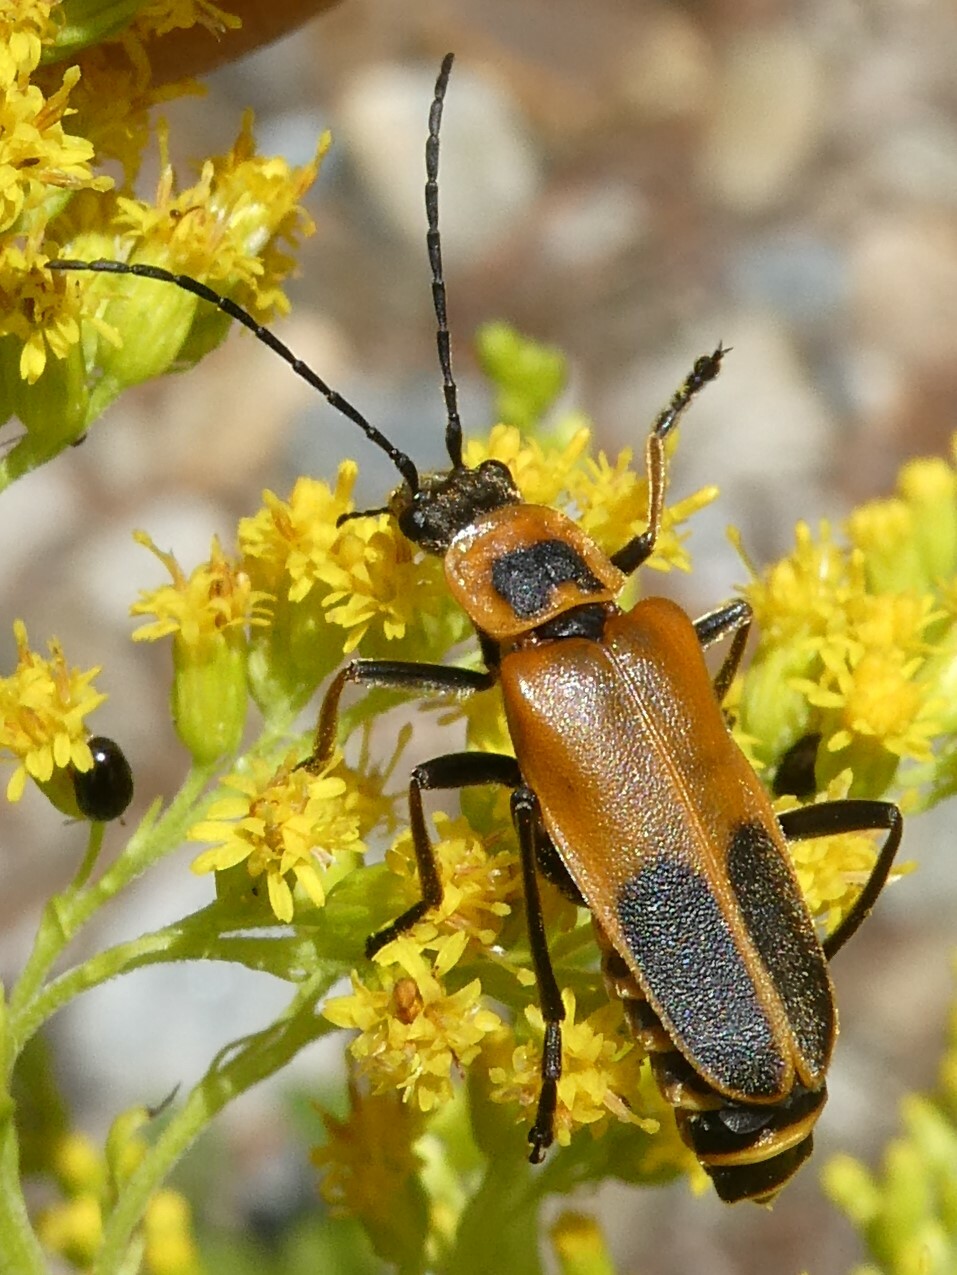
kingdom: Animalia
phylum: Arthropoda
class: Insecta
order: Coleoptera
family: Cantharidae
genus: Chauliognathus
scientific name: Chauliognathus pensylvanicus
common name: Goldenrod soldier beetle
